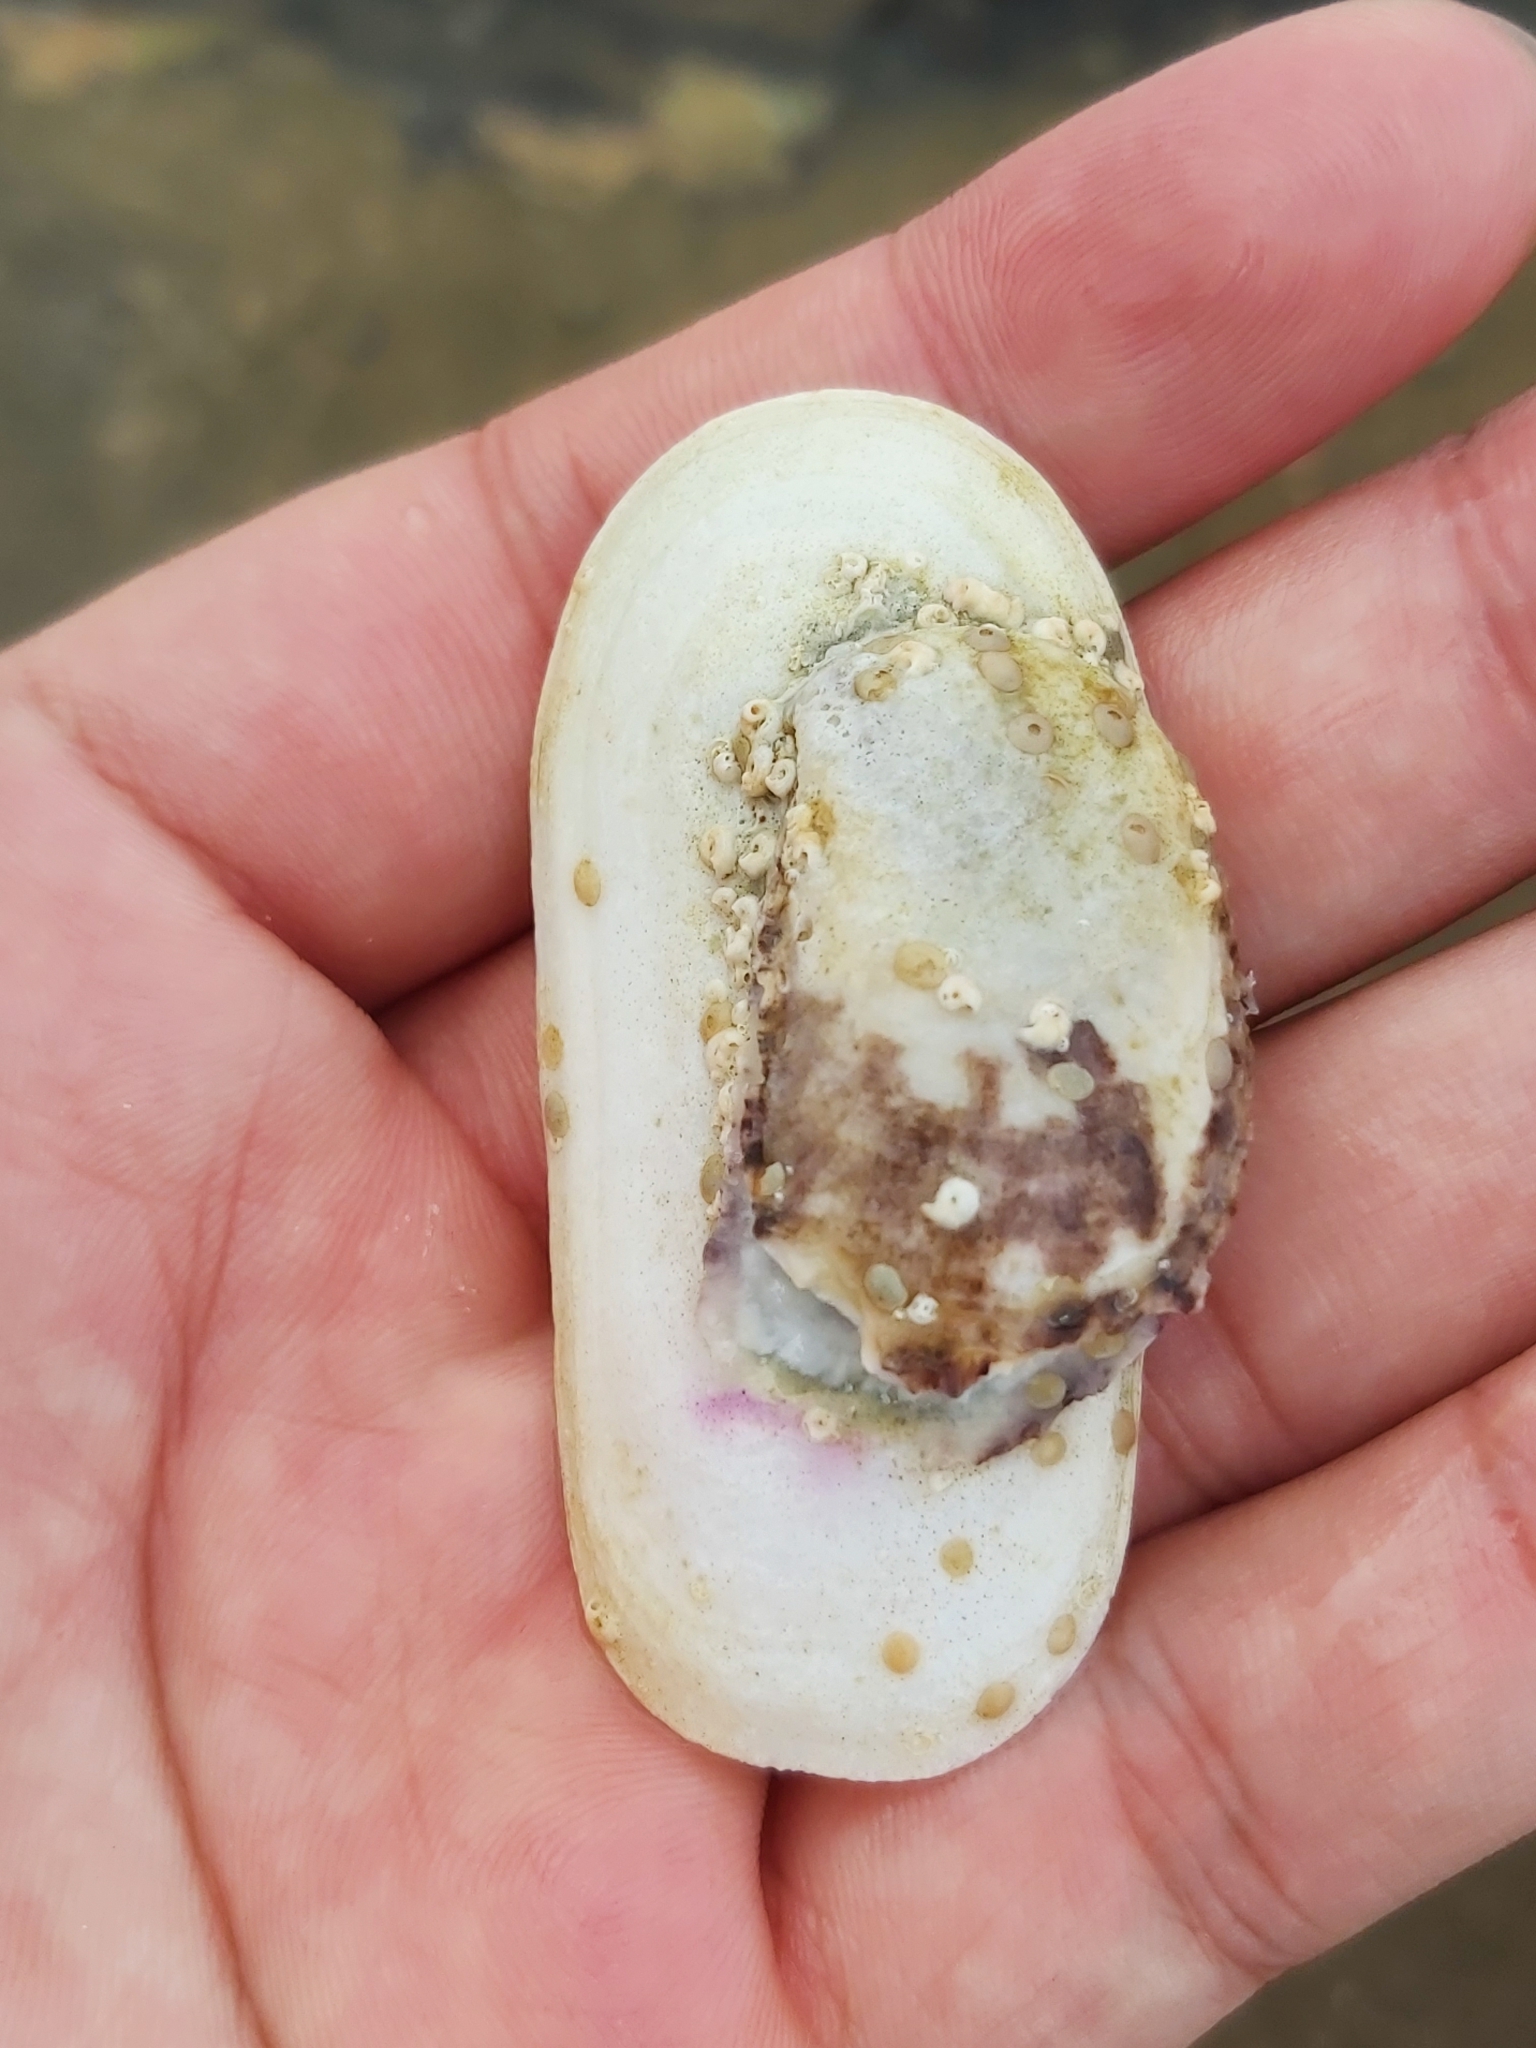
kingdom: Animalia
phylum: Mollusca
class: Gastropoda
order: Lepetellida
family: Fissurellidae
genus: Scutus
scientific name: Scutus antipodes
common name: Duckbill shell
